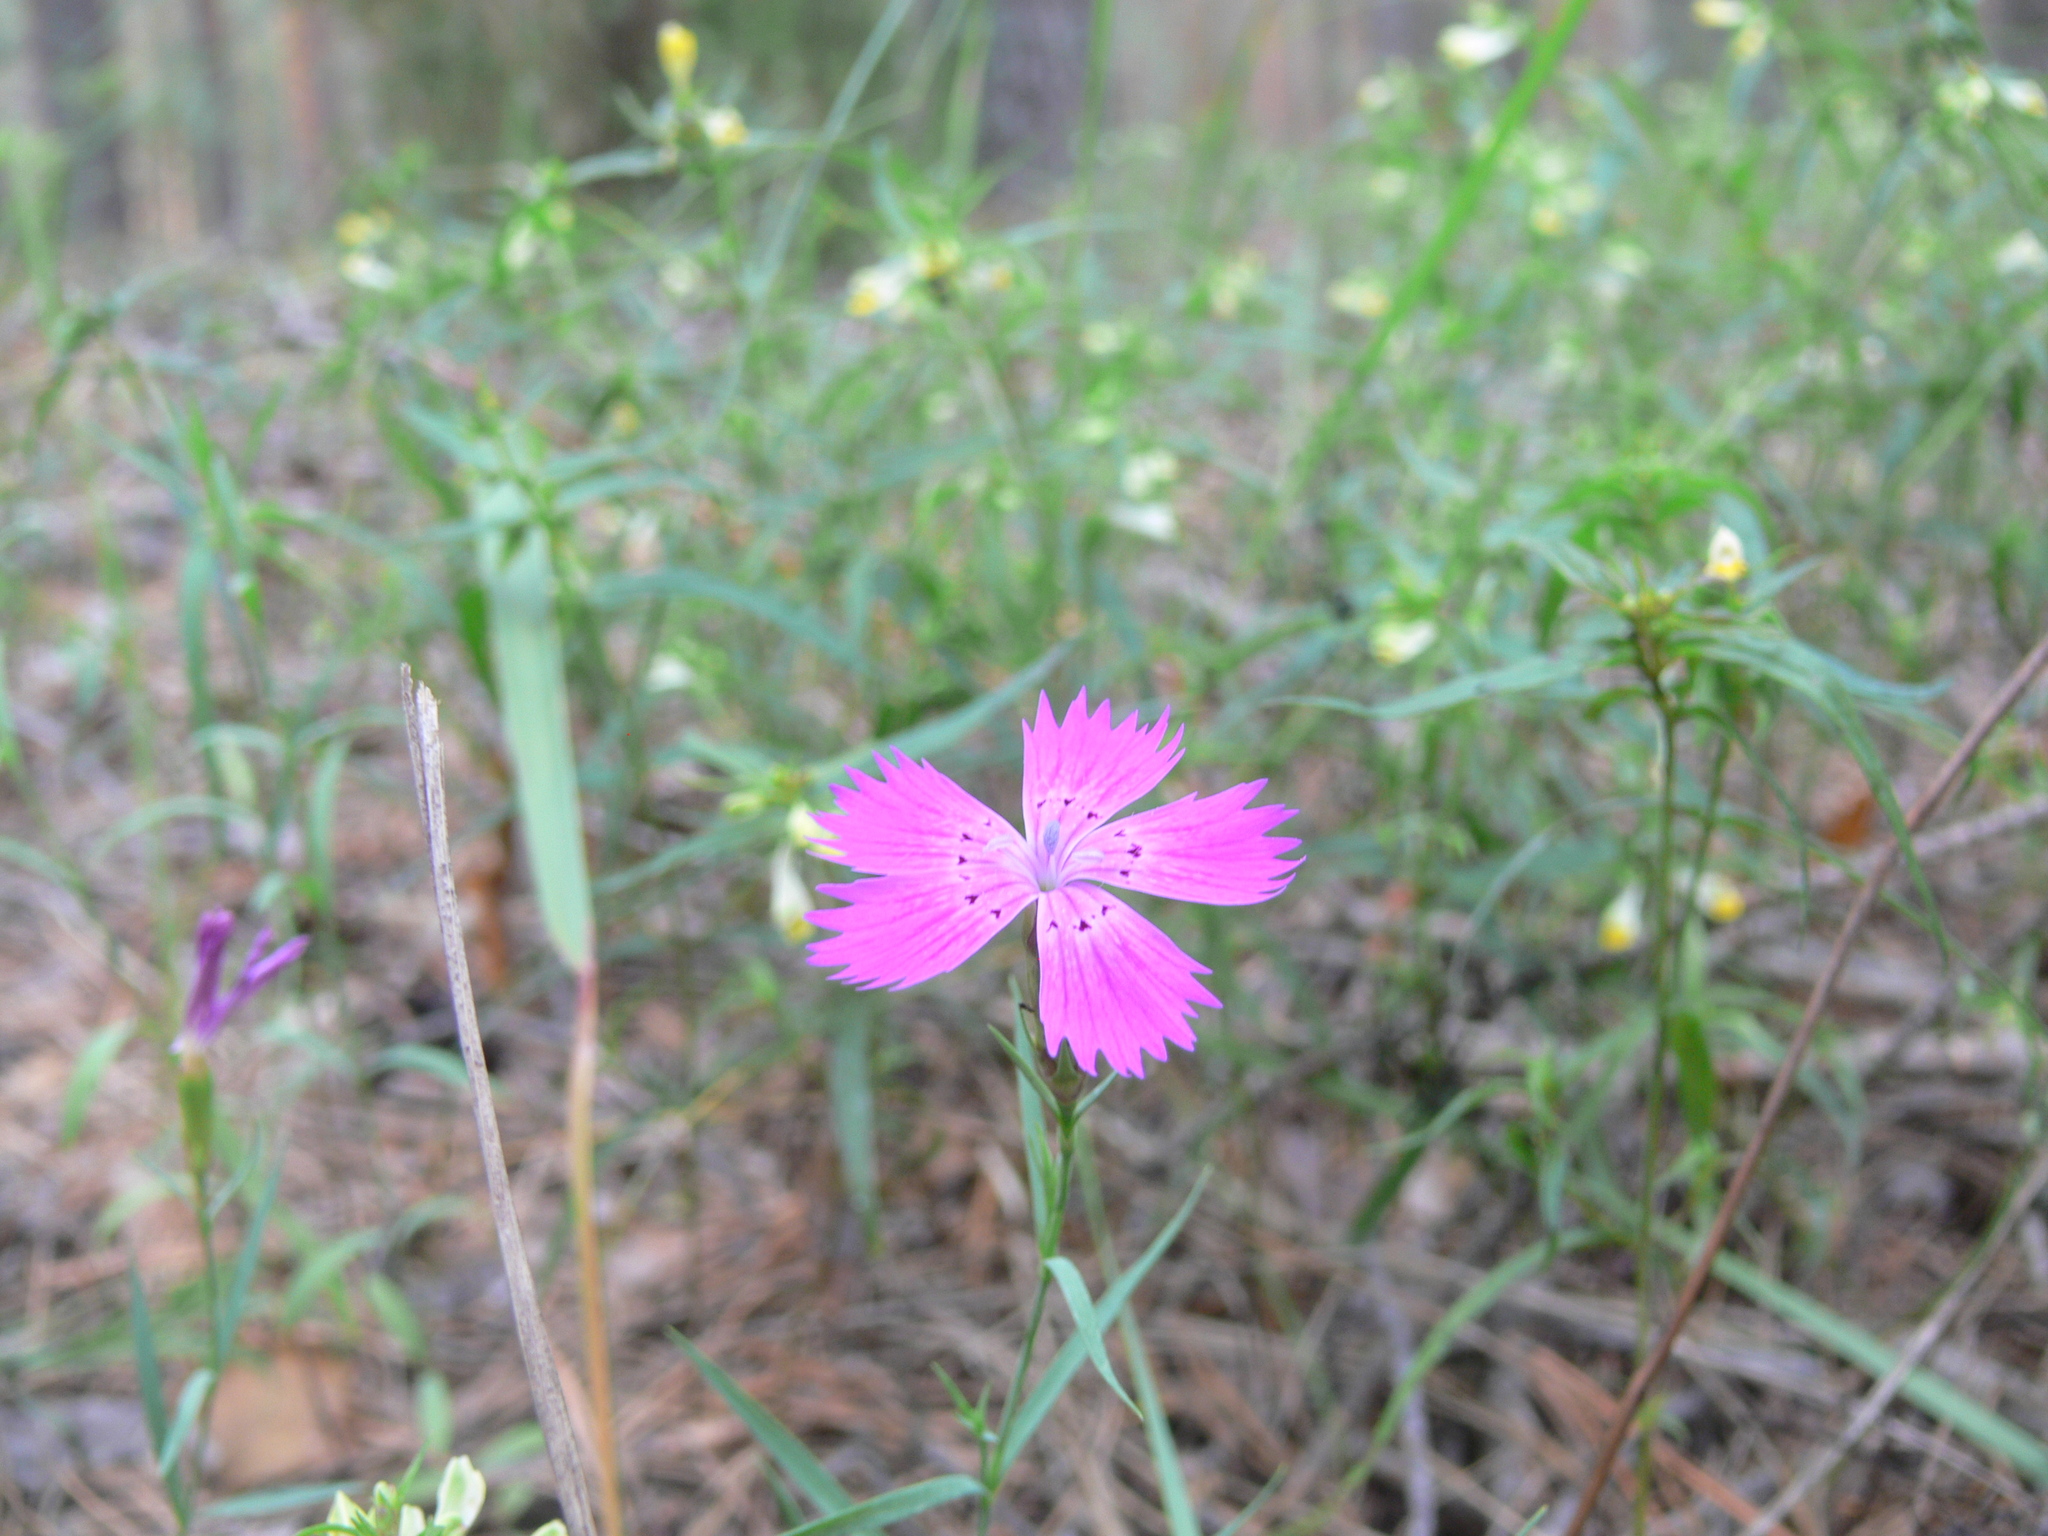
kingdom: Plantae
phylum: Tracheophyta
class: Magnoliopsida
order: Caryophyllales
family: Caryophyllaceae
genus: Dianthus
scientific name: Dianthus chinensis
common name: Rainbow pink
